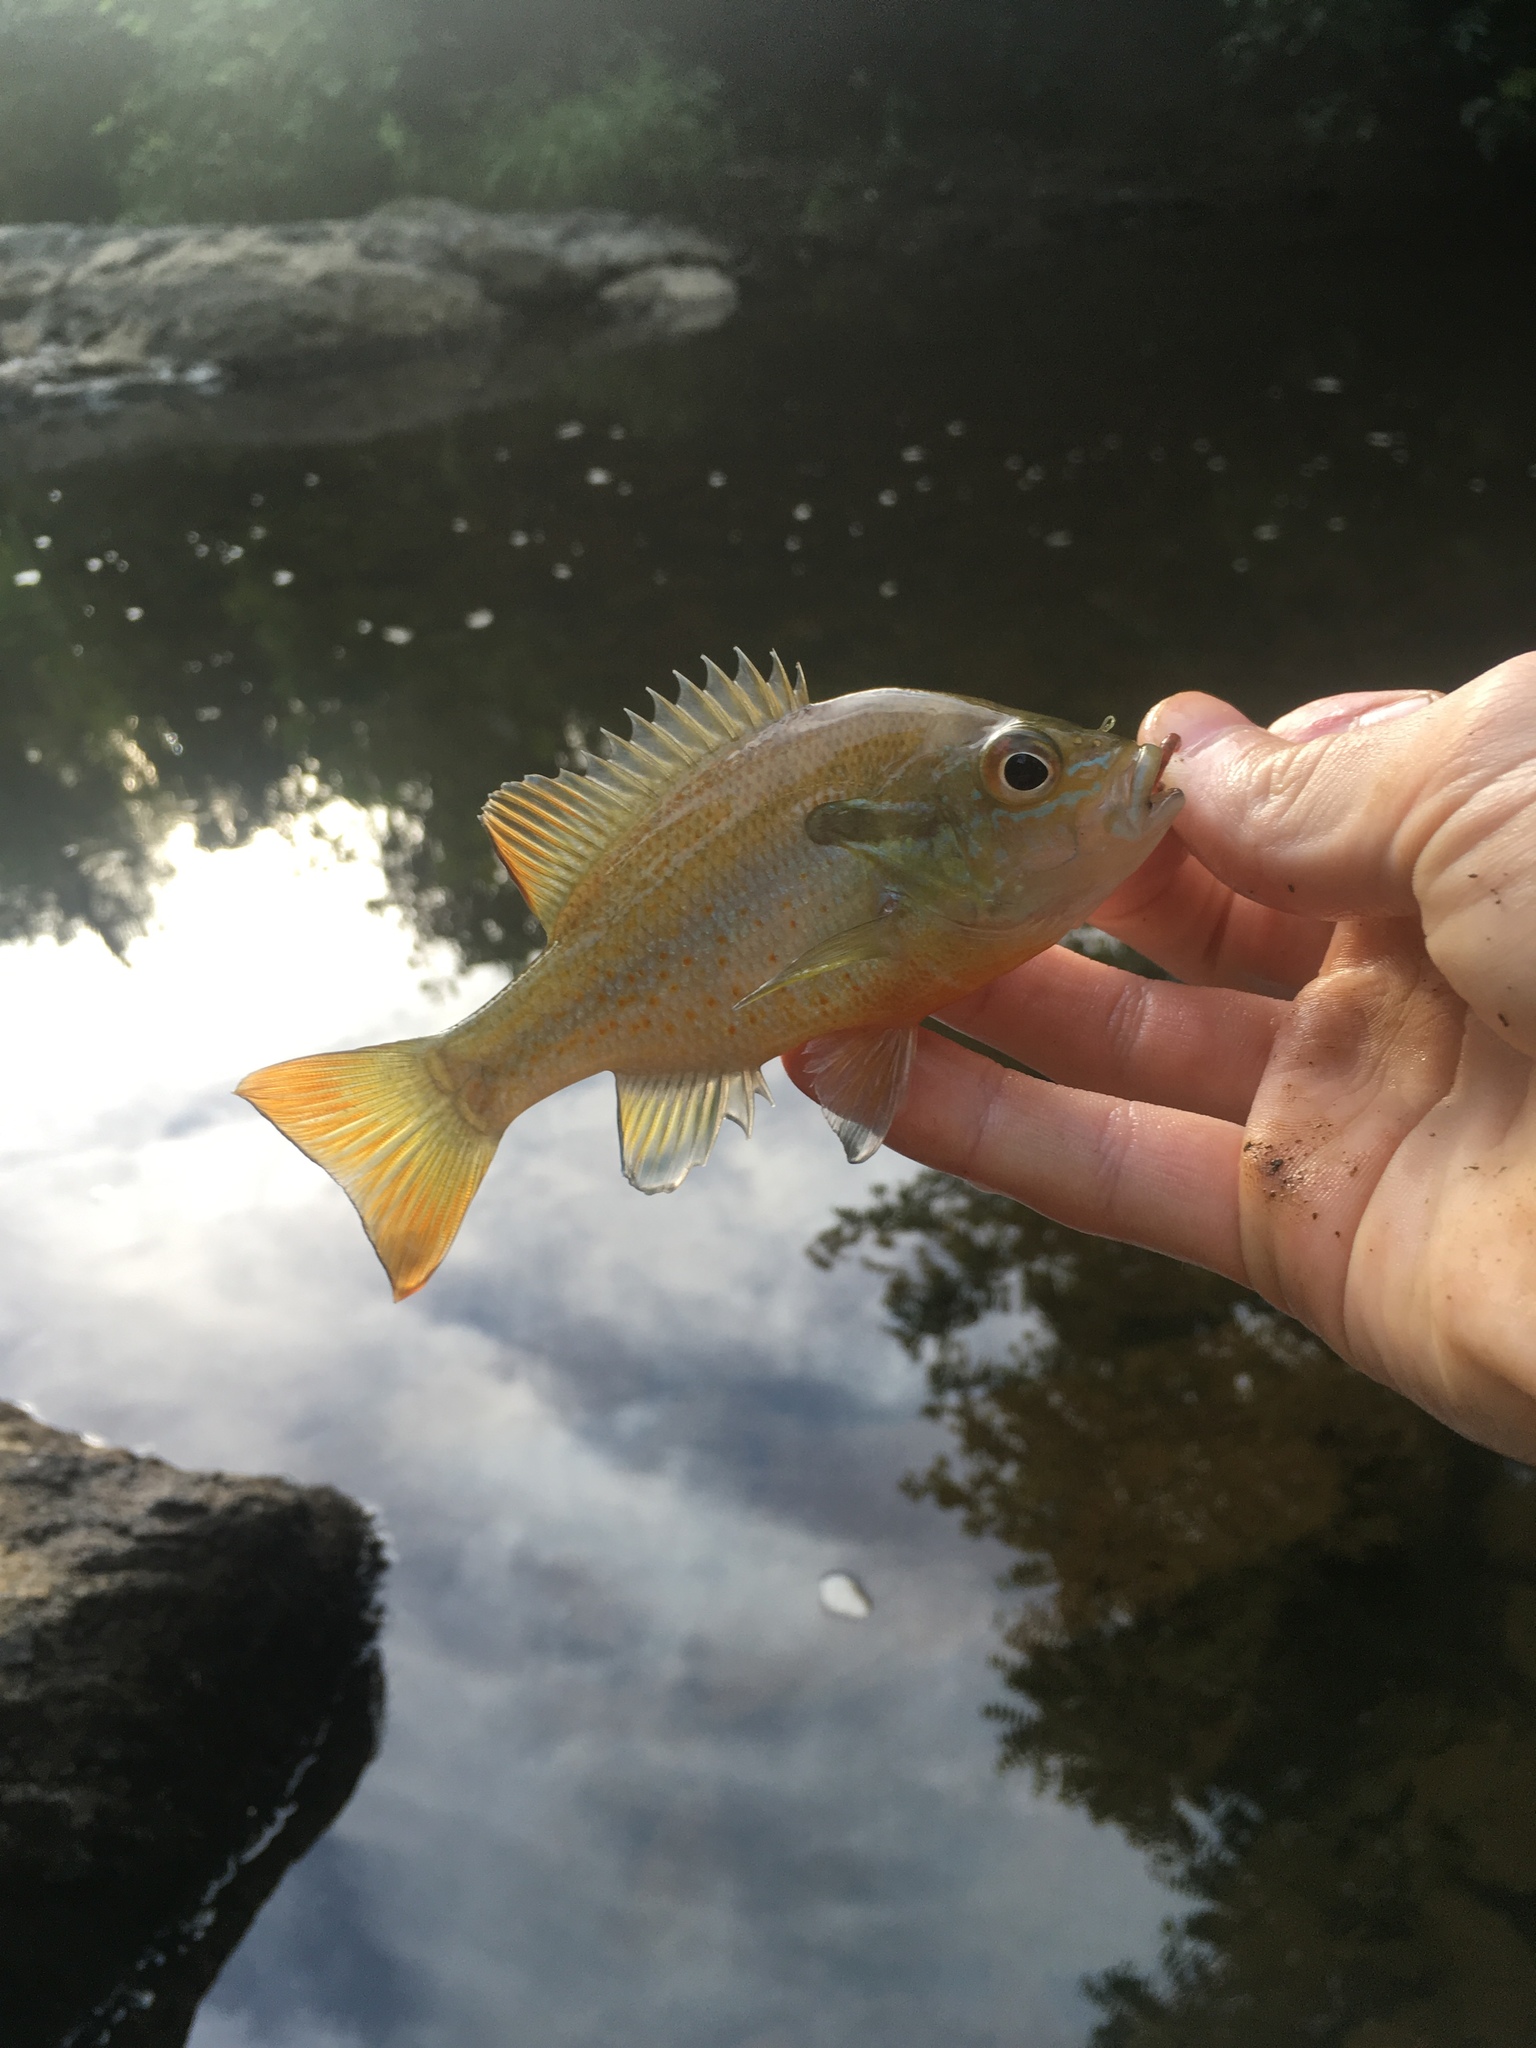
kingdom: Animalia
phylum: Chordata
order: Perciformes
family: Centrarchidae
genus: Lepomis
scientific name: Lepomis auritus
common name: Redbreast sunfish
